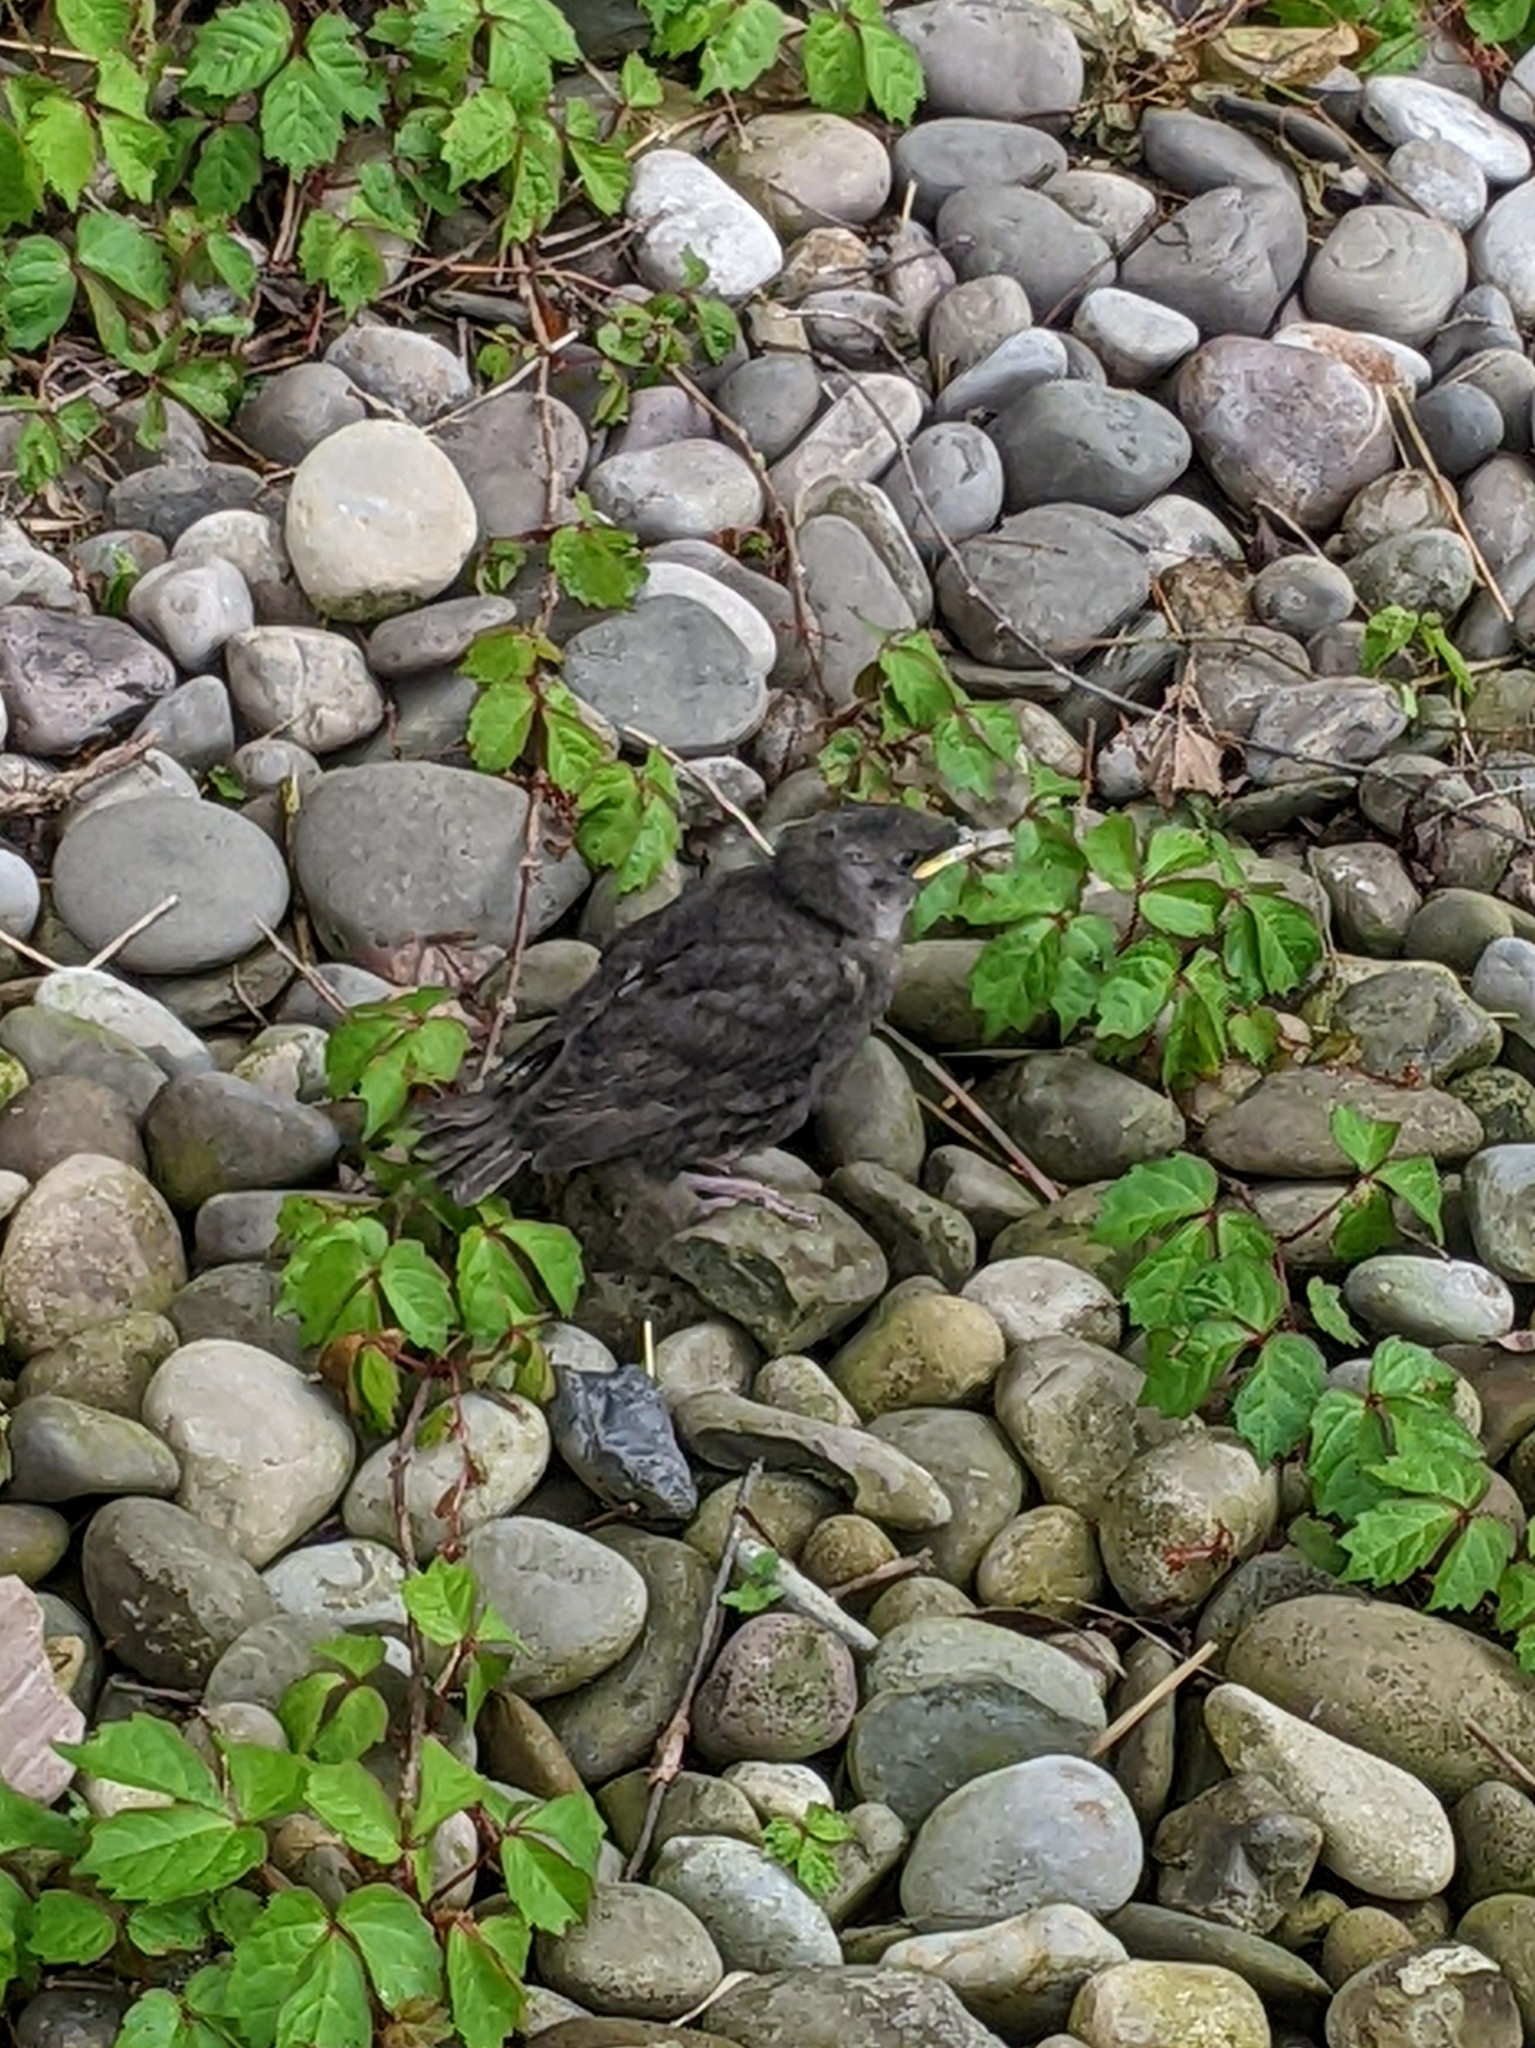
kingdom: Animalia
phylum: Chordata
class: Aves
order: Passeriformes
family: Sturnidae
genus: Sturnus
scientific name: Sturnus vulgaris
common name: Common starling
